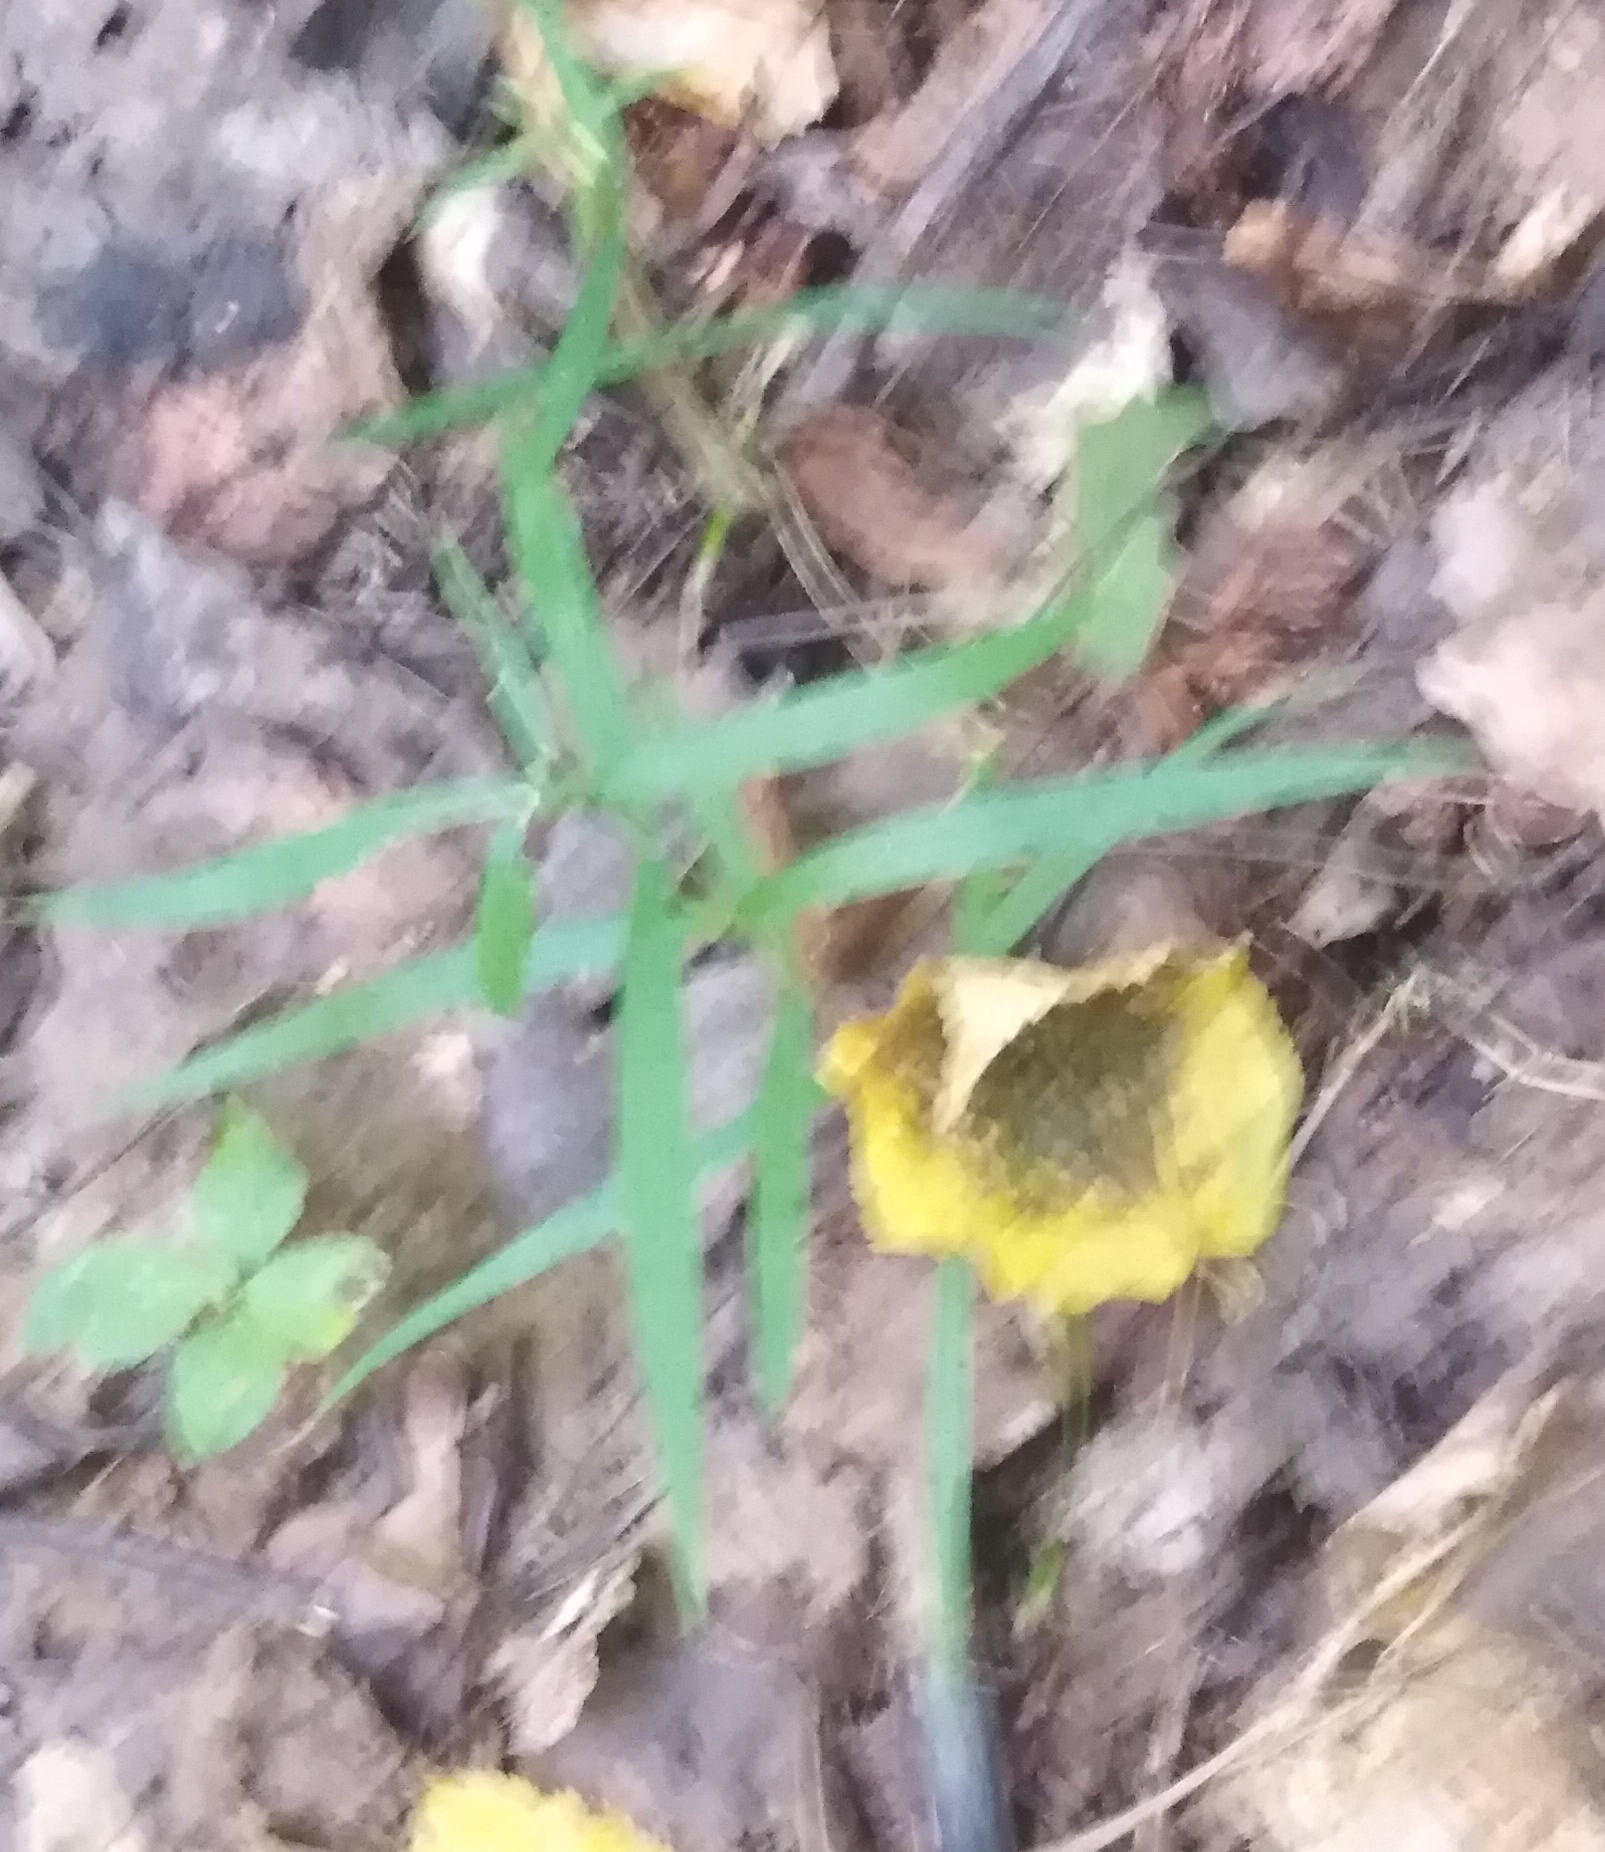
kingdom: Plantae
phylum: Tracheophyta
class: Magnoliopsida
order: Caryophyllales
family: Caryophyllaceae
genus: Rabelera
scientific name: Rabelera holostea
